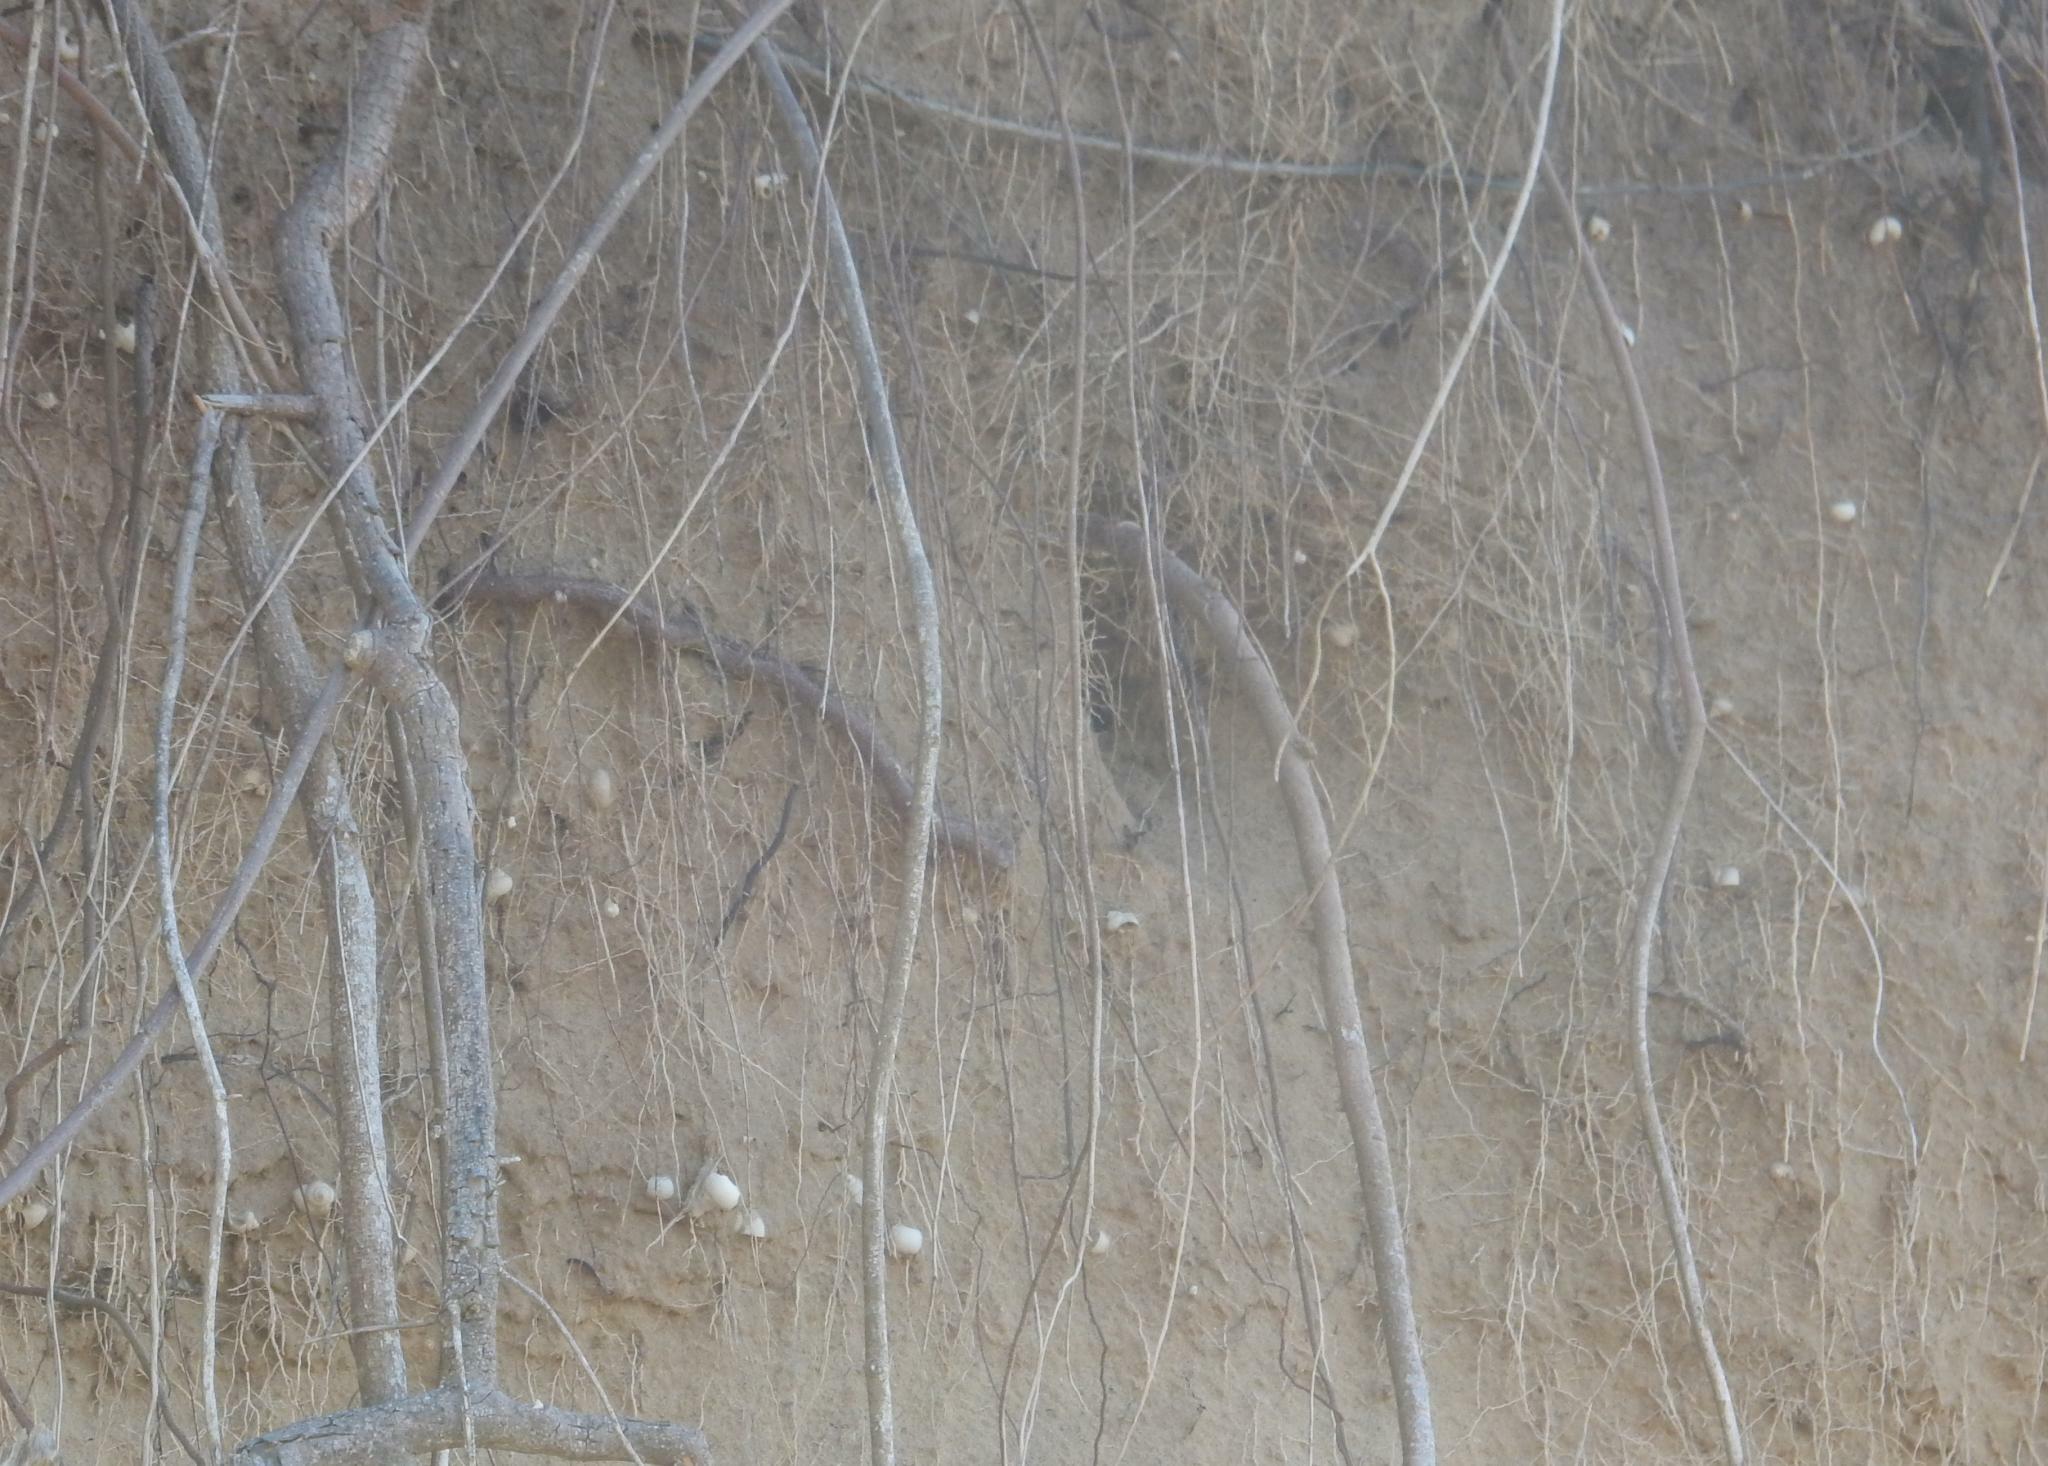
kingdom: Animalia
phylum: Chordata
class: Aves
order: Passeriformes
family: Hirundinidae
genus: Psalidoprocne
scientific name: Psalidoprocne pristoptera
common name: Black saw-wing
